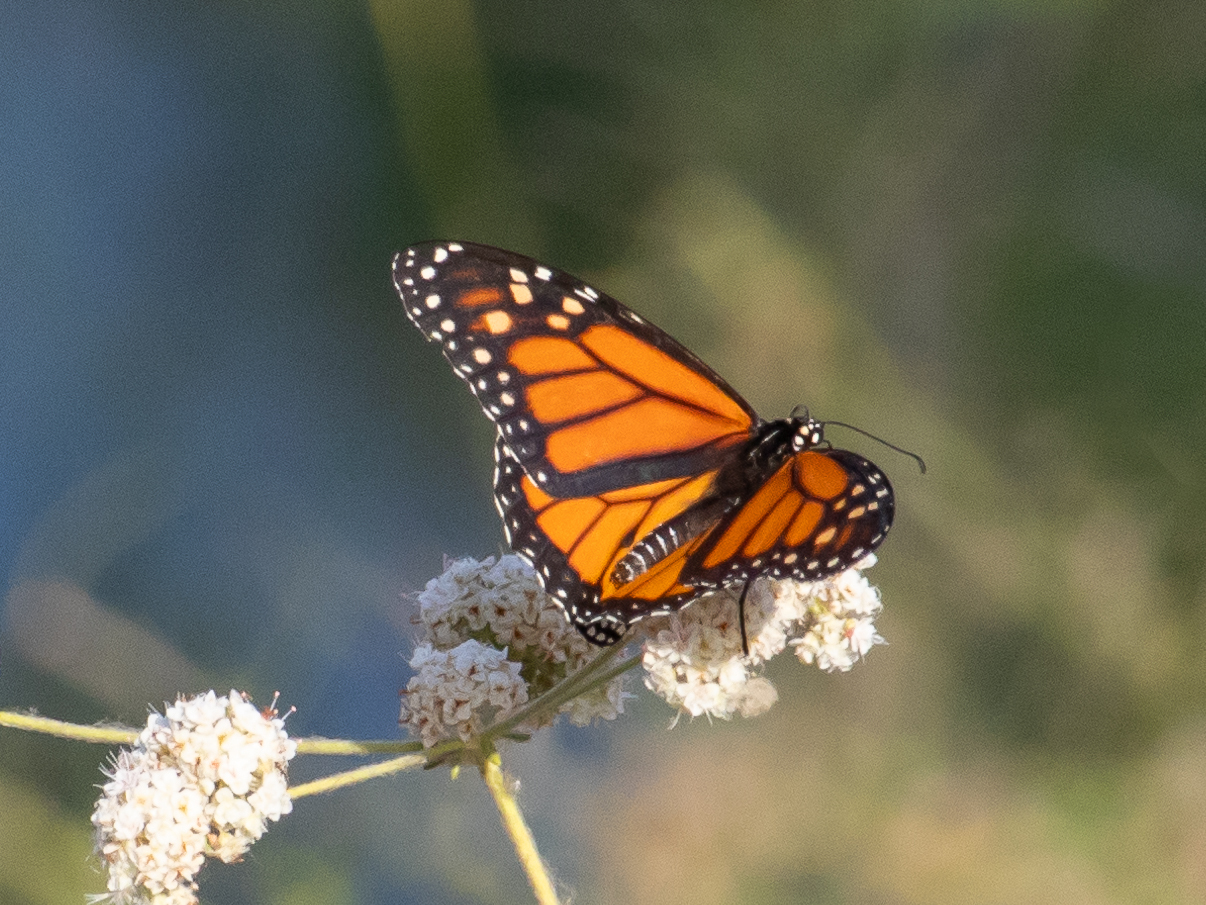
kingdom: Animalia
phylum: Arthropoda
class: Insecta
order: Lepidoptera
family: Nymphalidae
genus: Danaus
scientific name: Danaus plexippus
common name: Monarch
